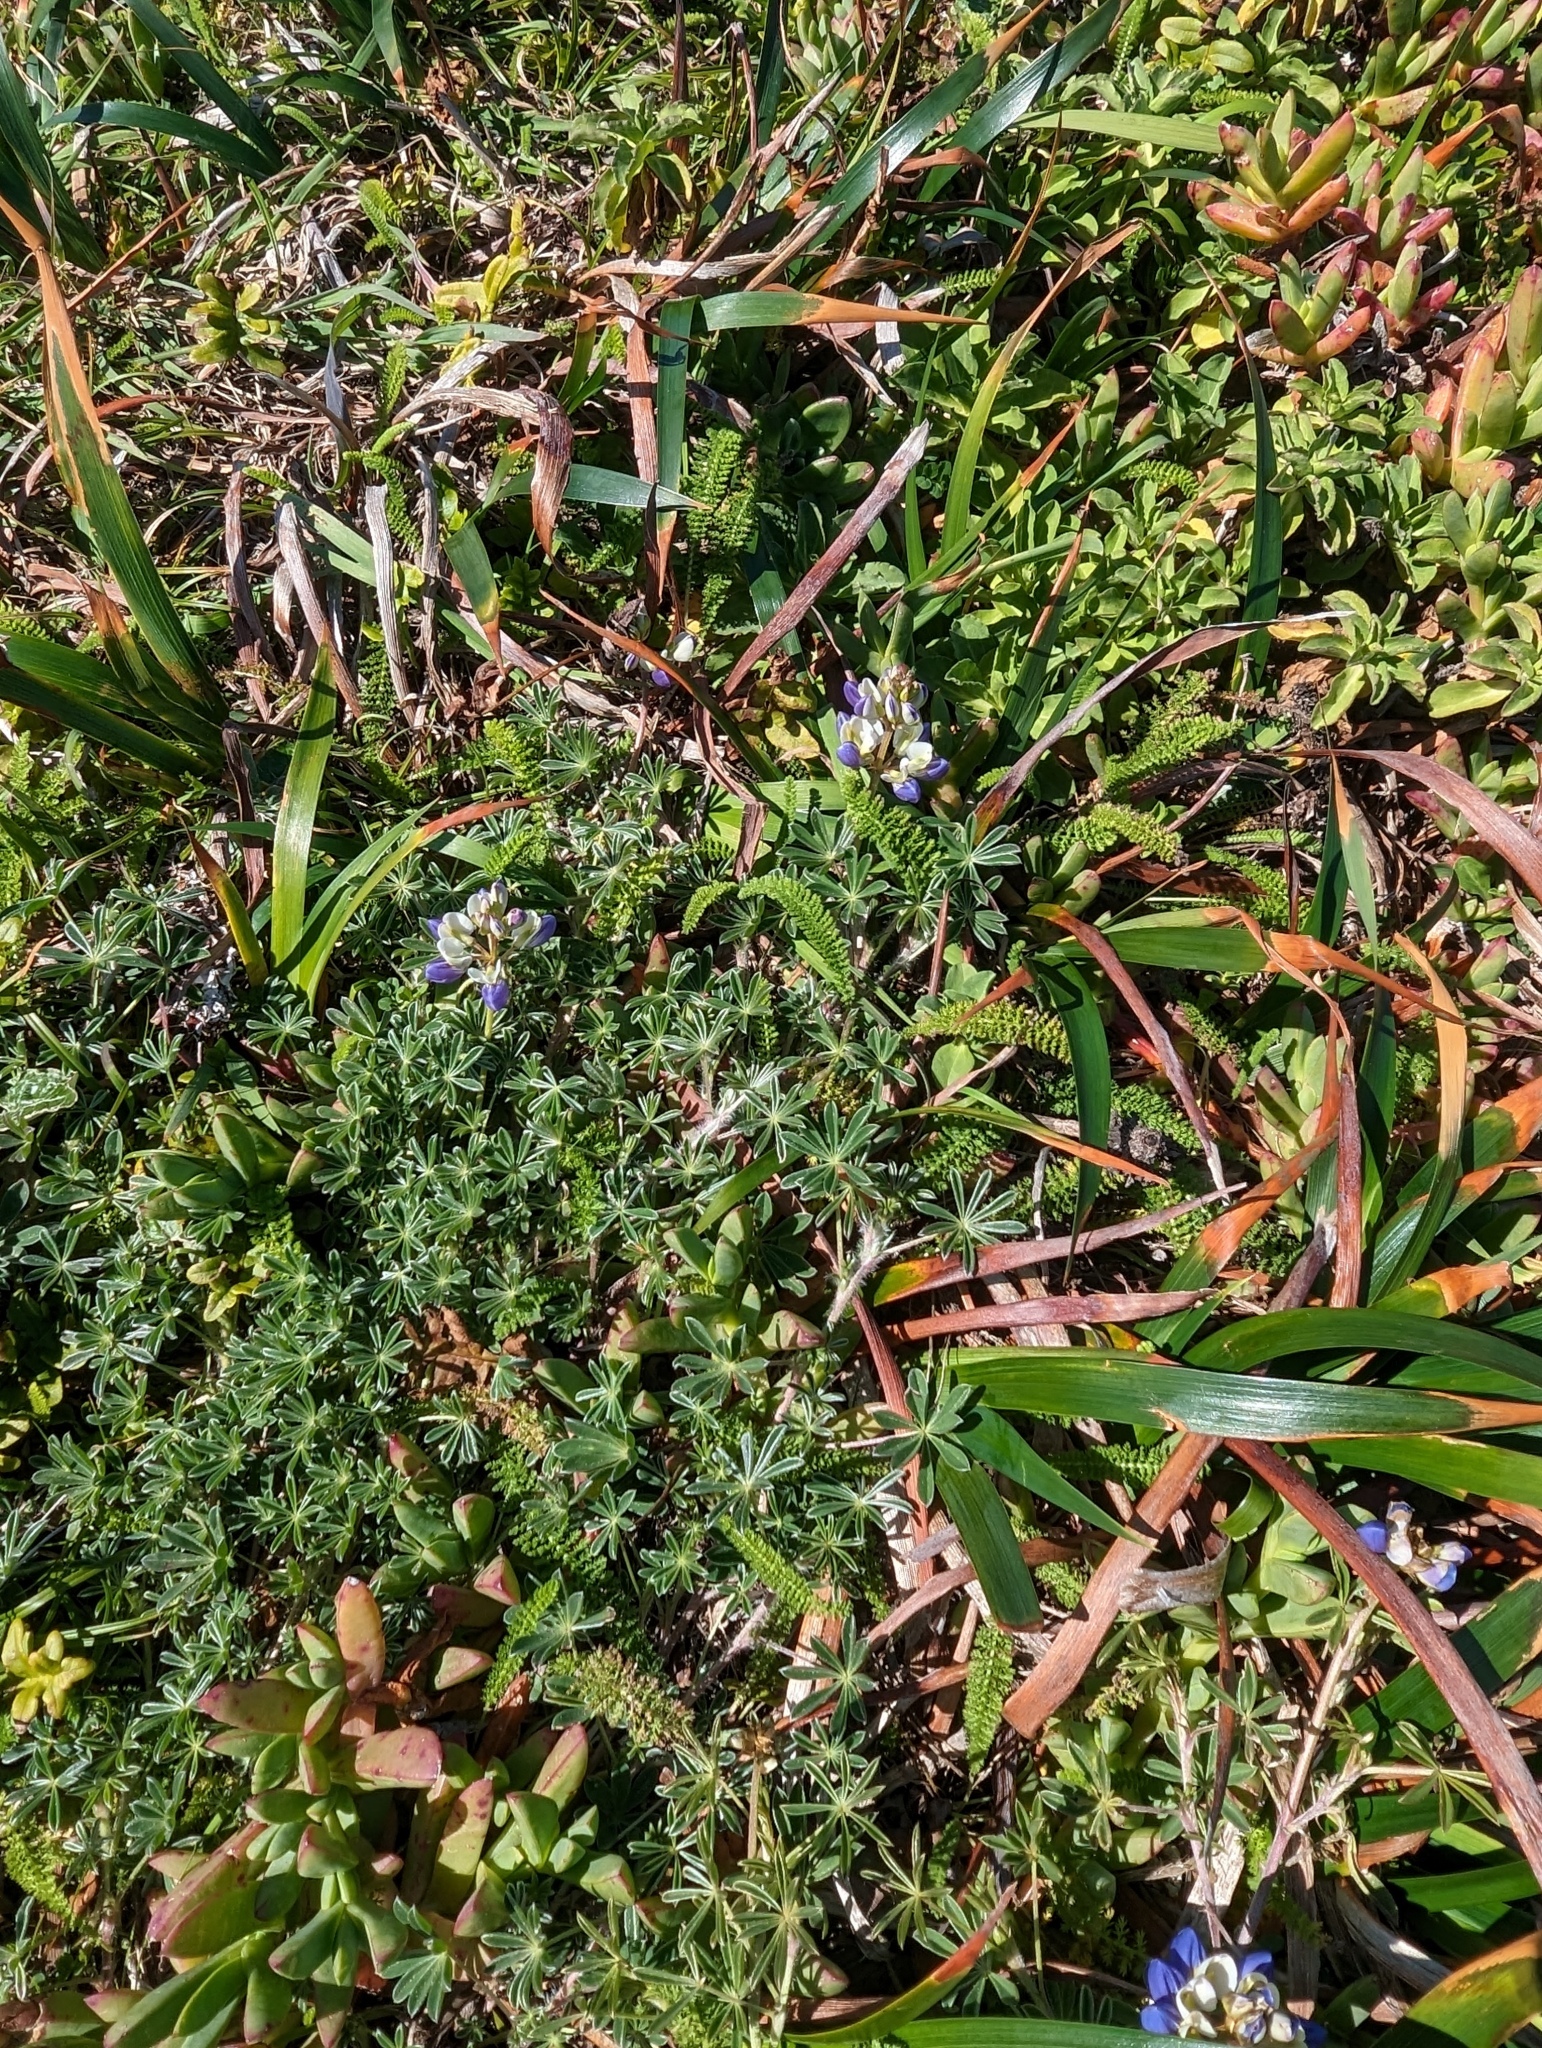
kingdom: Plantae
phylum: Tracheophyta
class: Magnoliopsida
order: Fabales
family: Fabaceae
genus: Lupinus
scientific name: Lupinus variicolor
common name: Lindley's varied lupine
